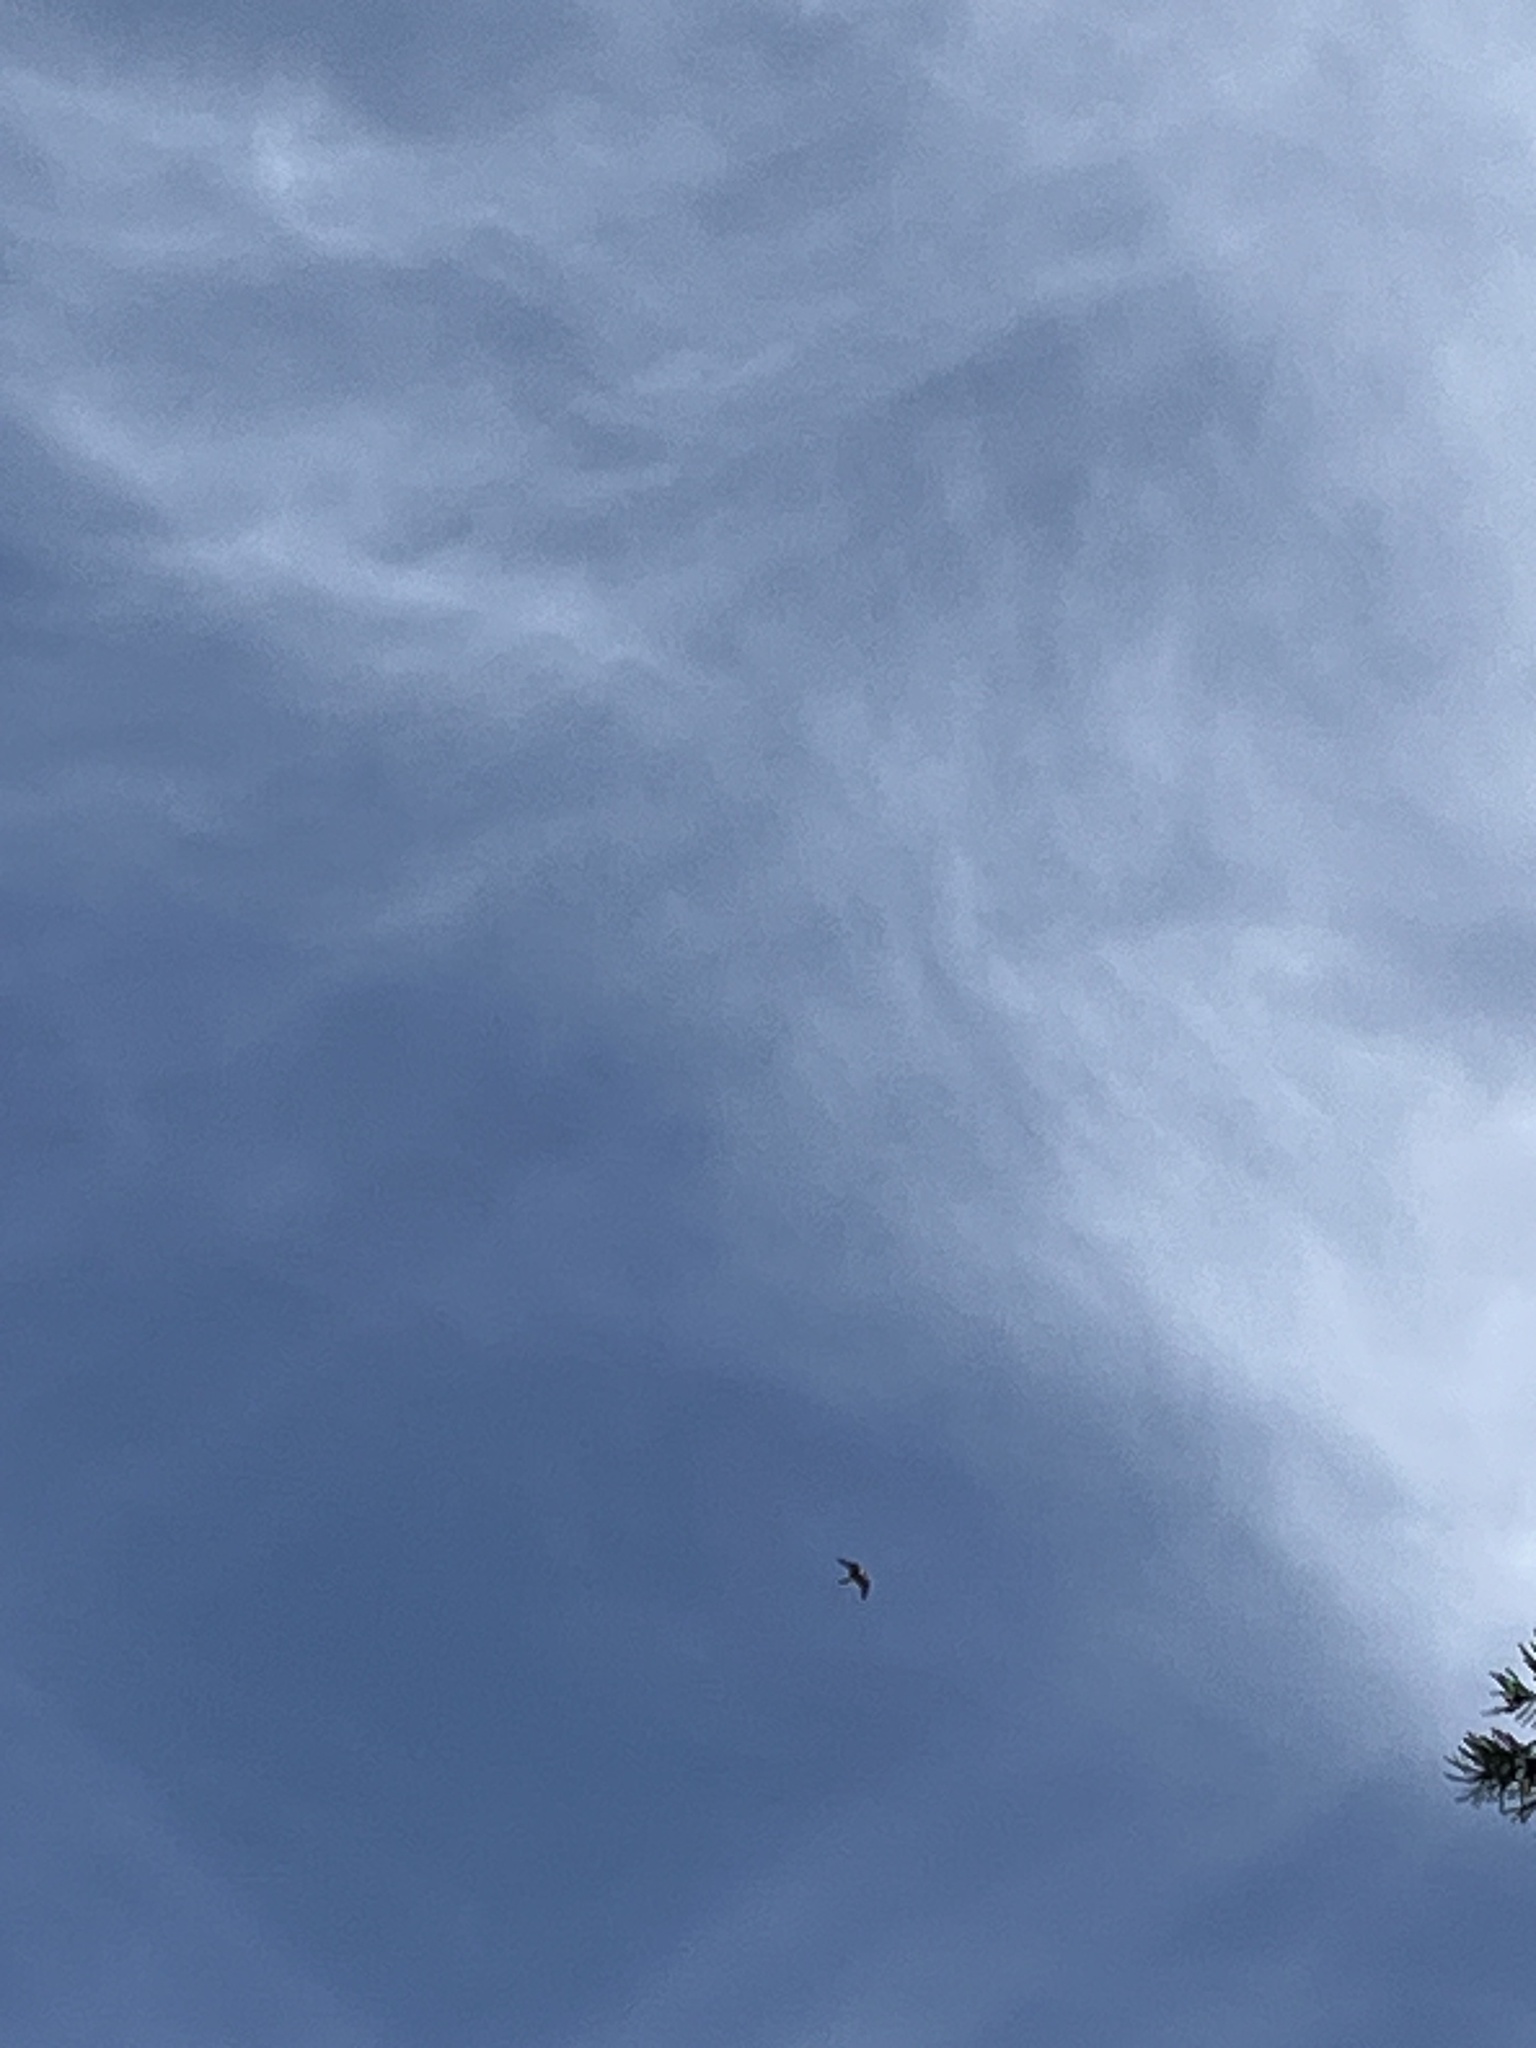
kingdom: Animalia
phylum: Chordata
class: Aves
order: Falconiformes
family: Falconidae
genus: Falco
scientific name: Falco peregrinus
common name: Peregrine falcon
